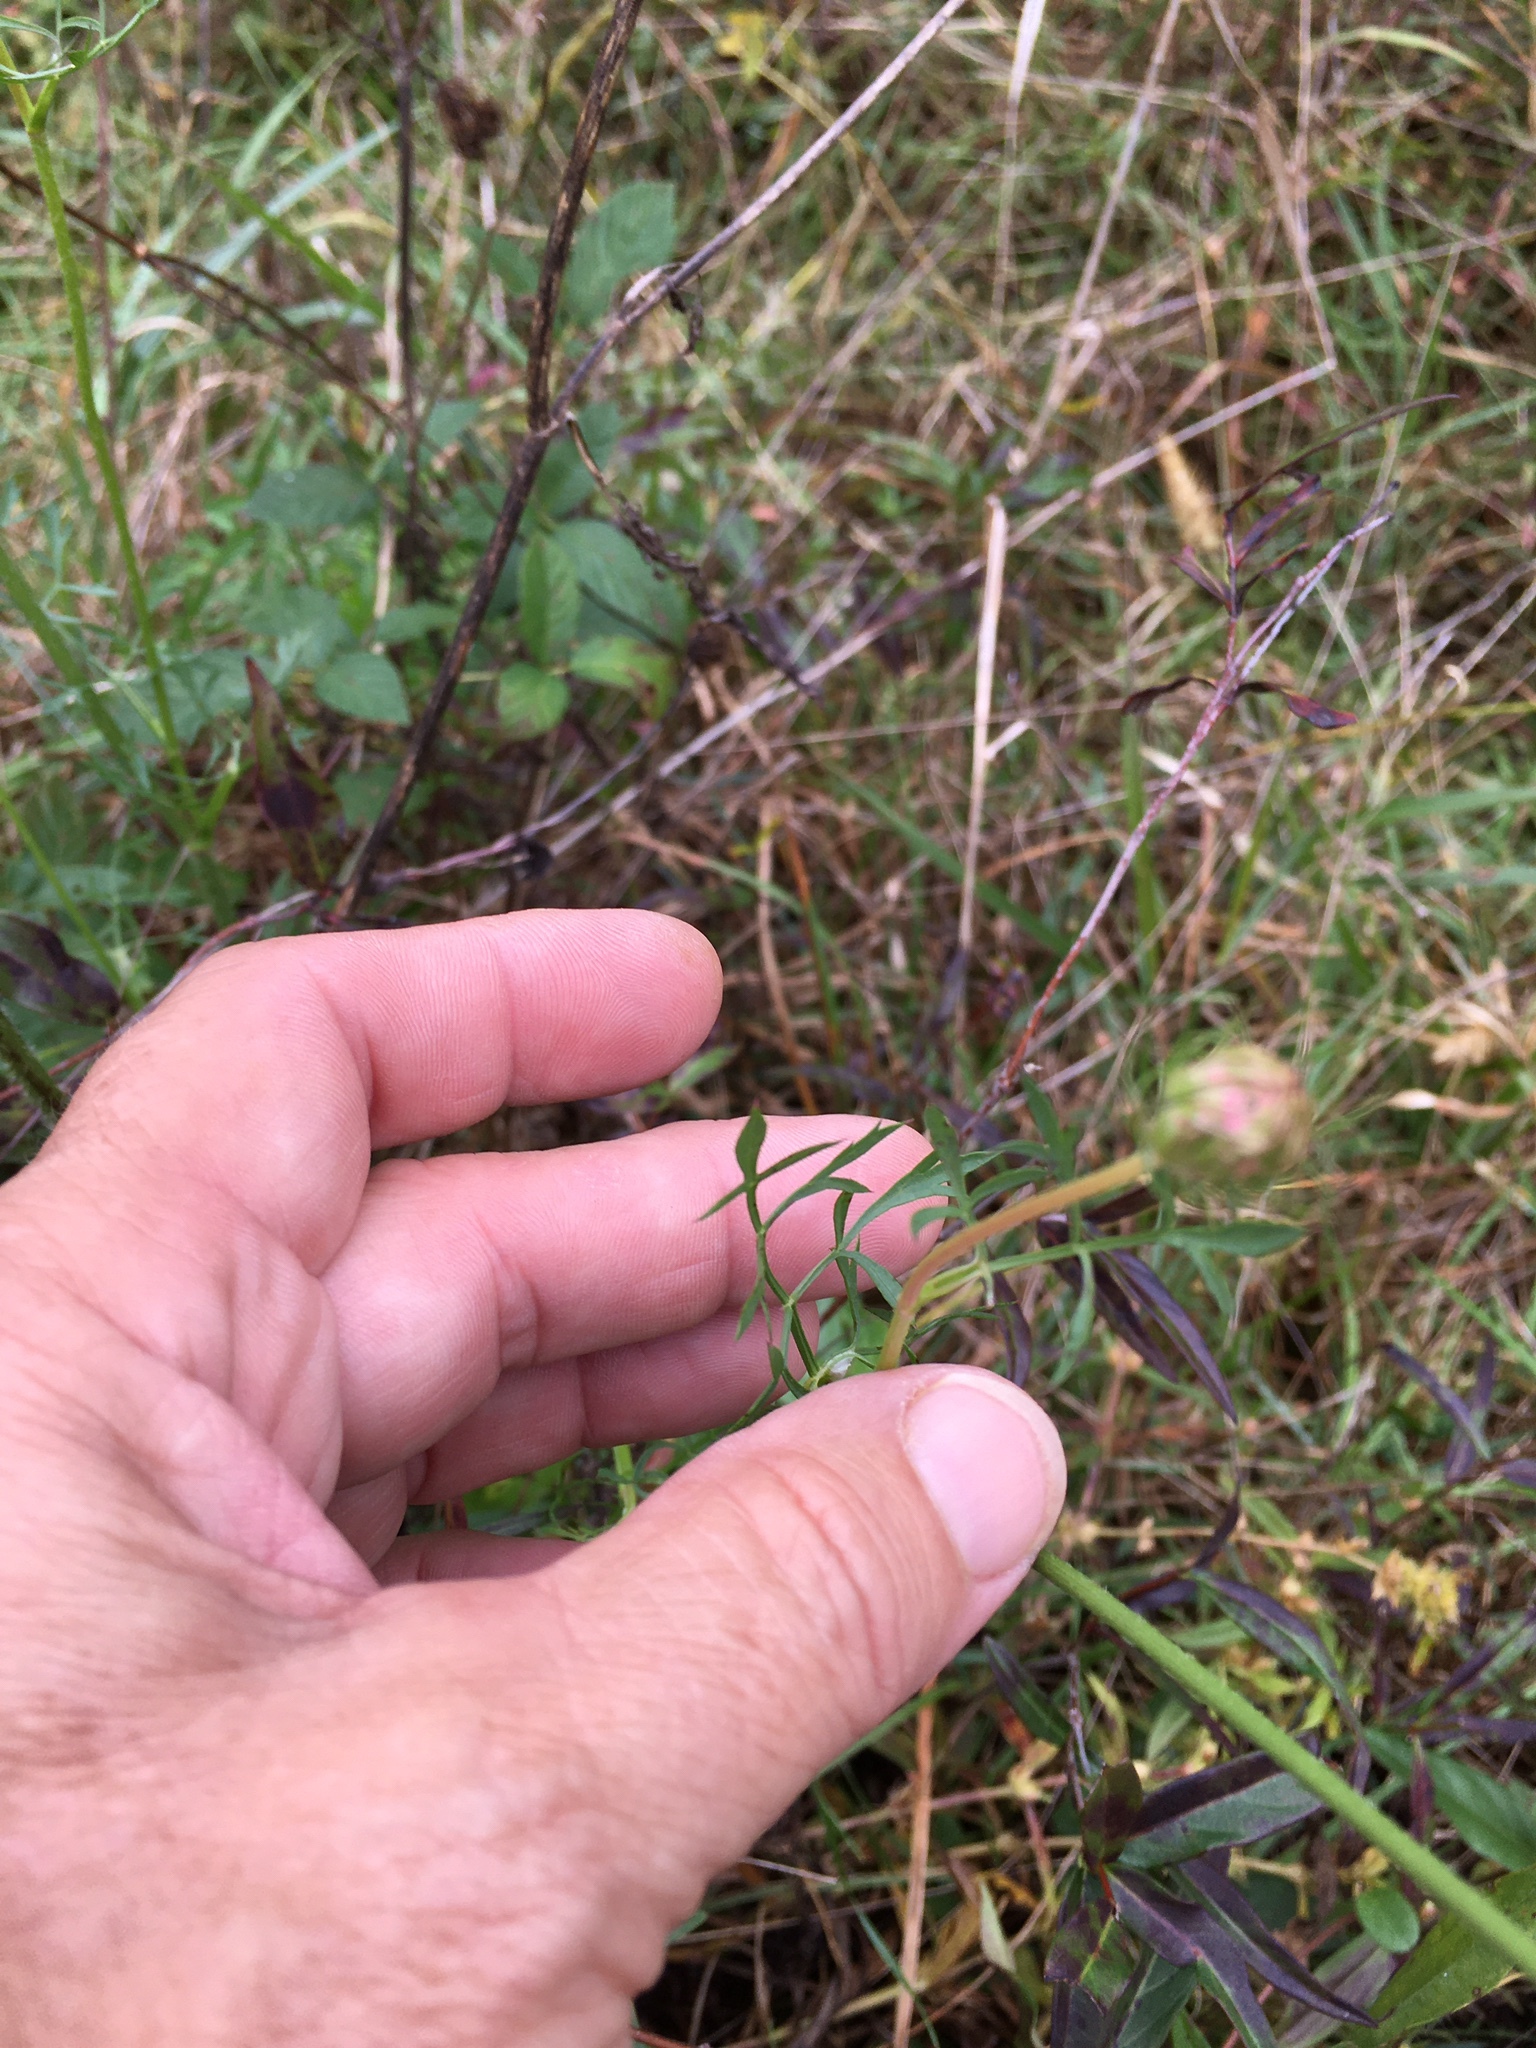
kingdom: Plantae
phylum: Tracheophyta
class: Magnoliopsida
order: Apiales
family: Apiaceae
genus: Daucus
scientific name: Daucus carota
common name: Wild carrot
